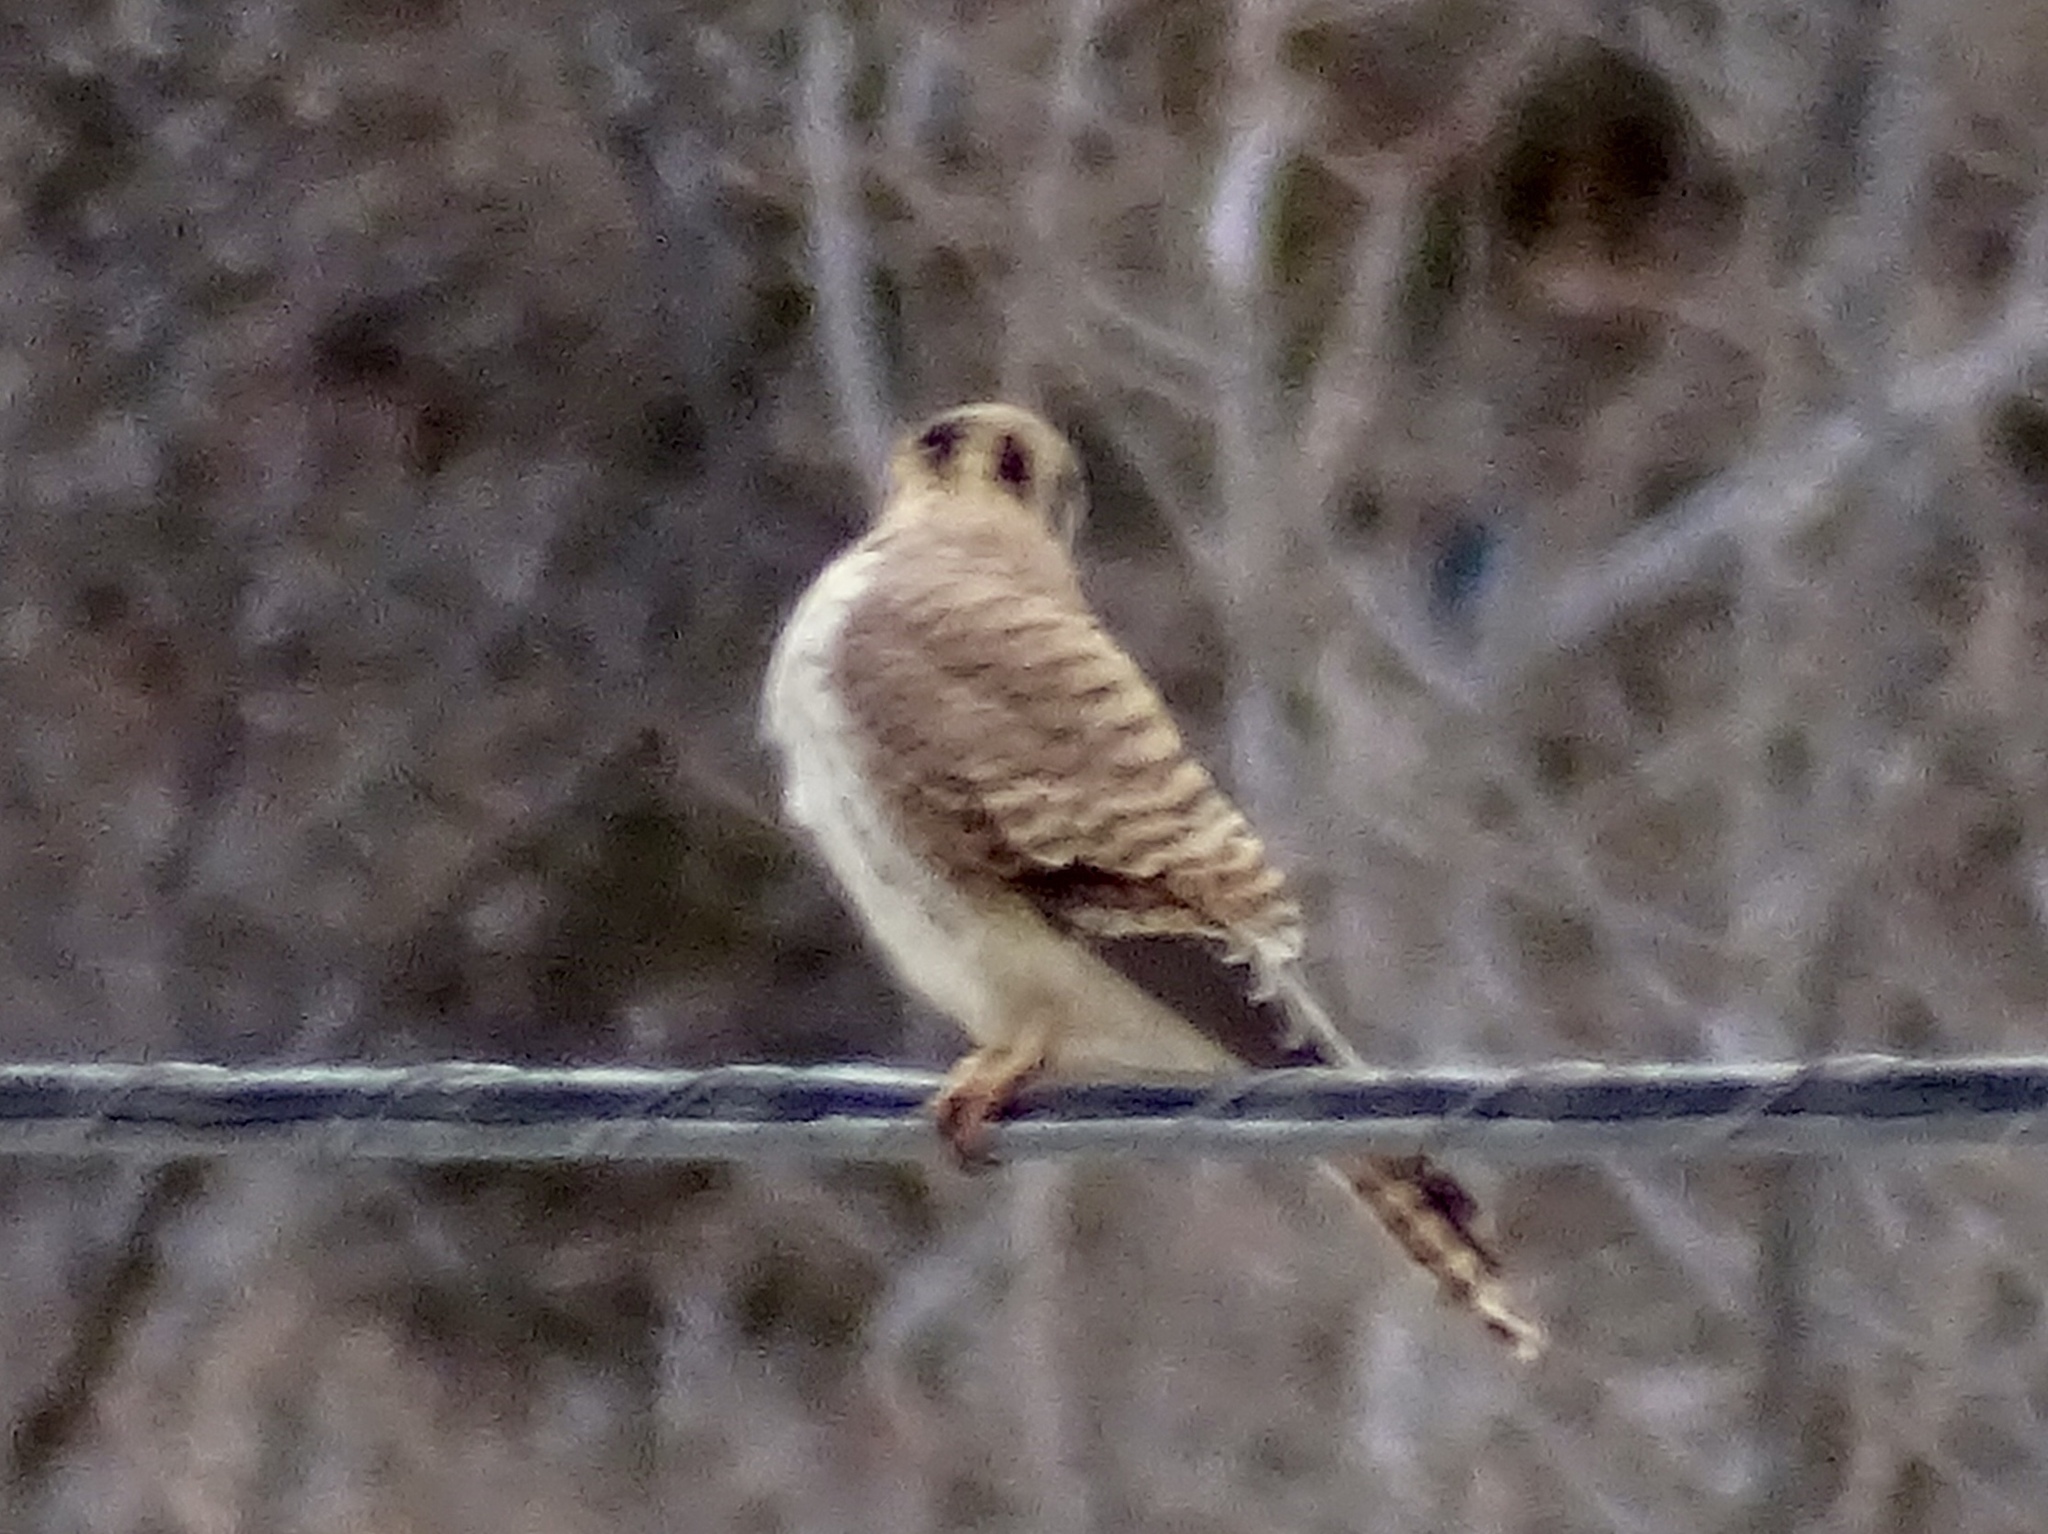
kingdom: Animalia
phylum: Chordata
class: Aves
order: Falconiformes
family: Falconidae
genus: Falco
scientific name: Falco sparverius
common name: American kestrel
